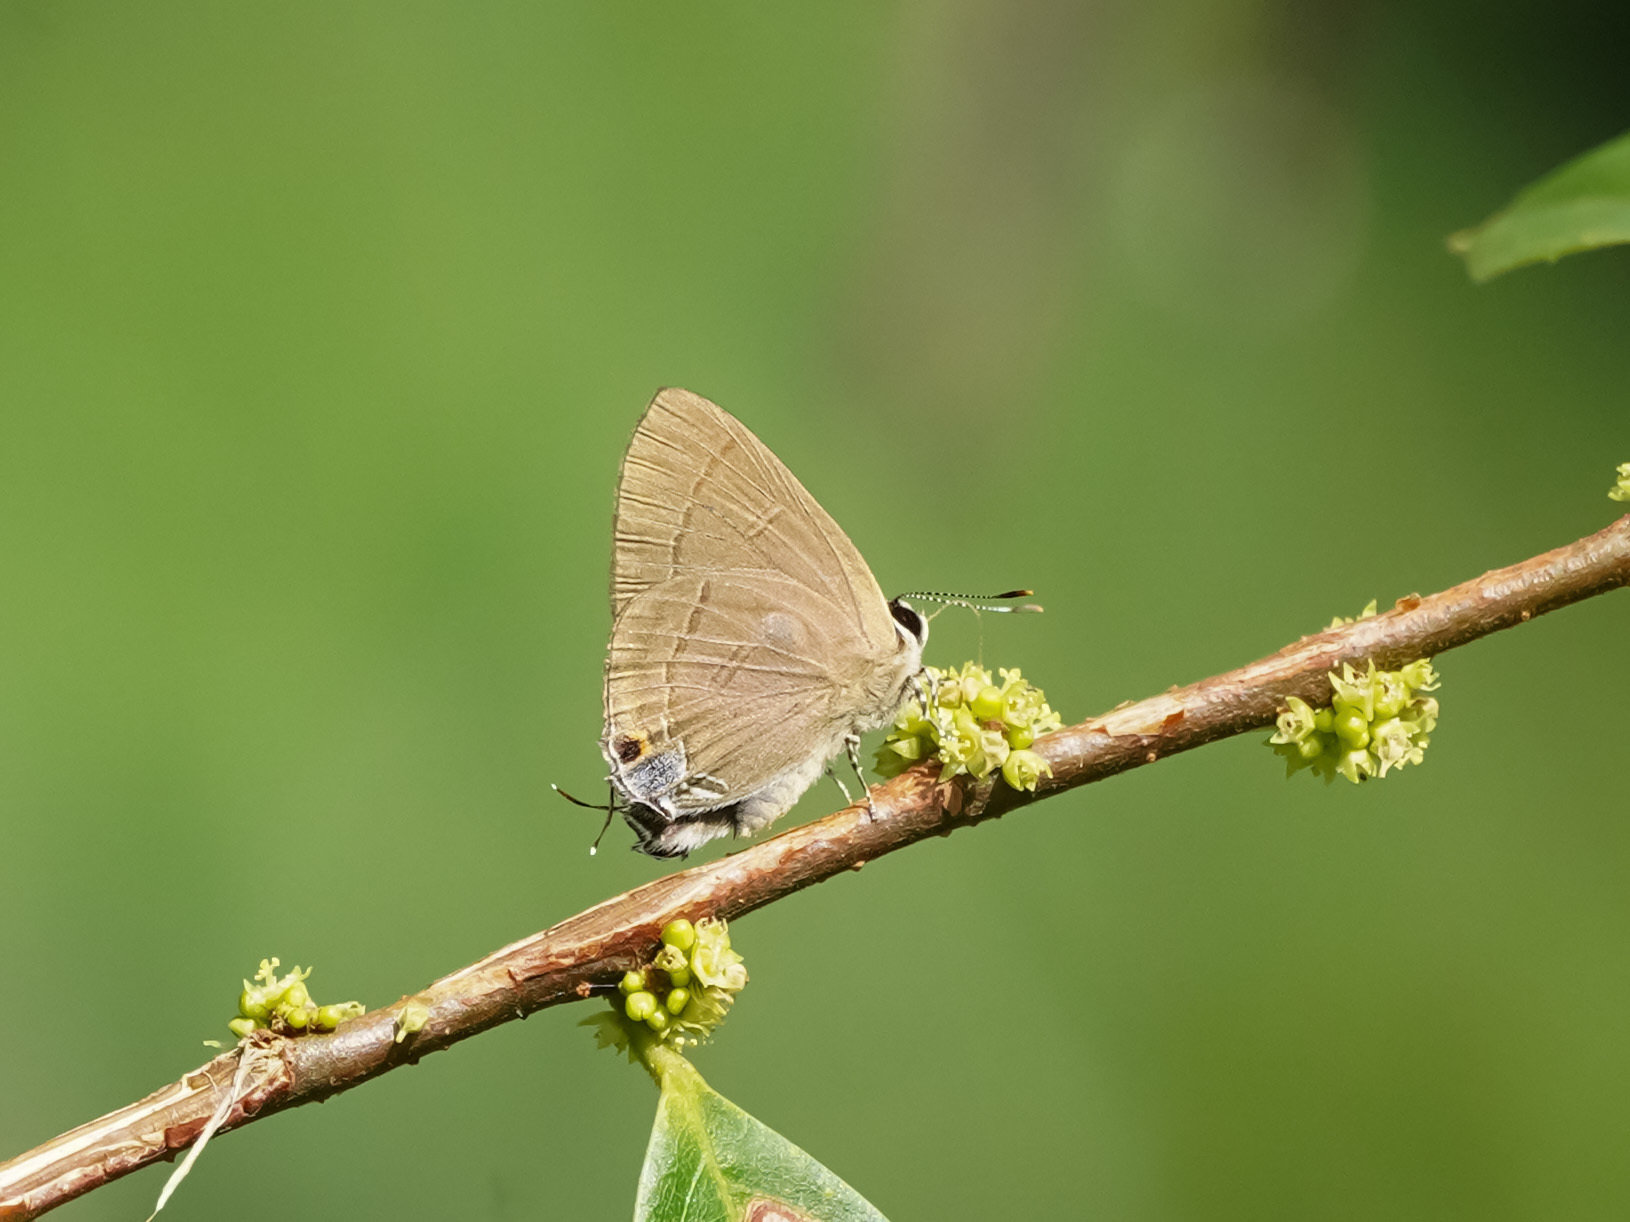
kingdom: Animalia
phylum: Arthropoda
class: Insecta
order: Lepidoptera
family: Lycaenidae
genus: Rapala
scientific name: Rapala manea
